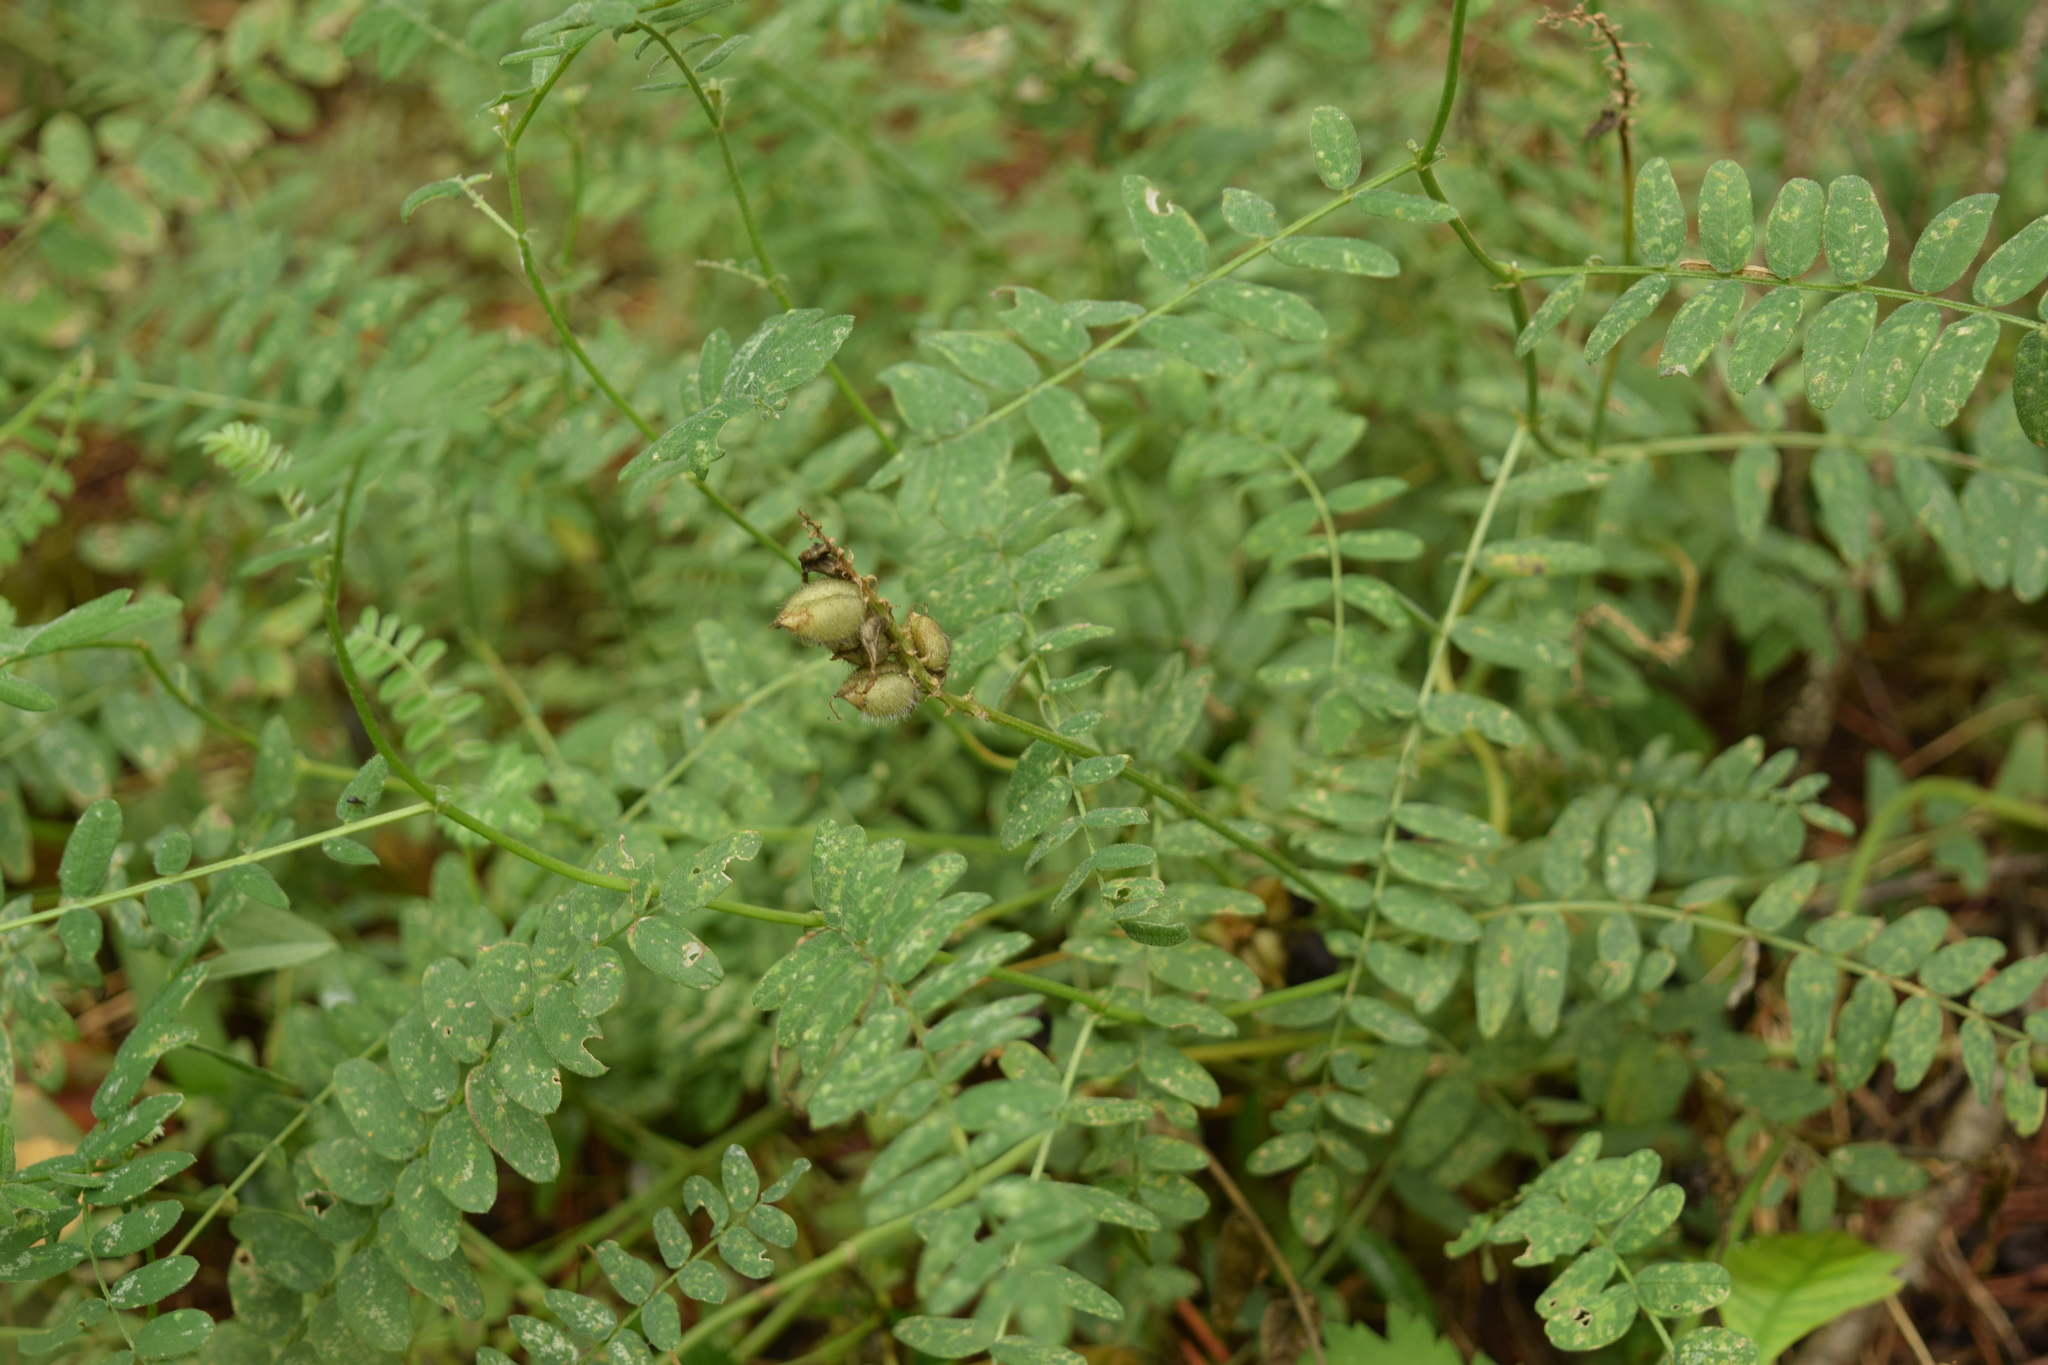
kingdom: Plantae
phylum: Tracheophyta
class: Magnoliopsida
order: Fabales
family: Fabaceae
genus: Astragalus
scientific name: Astragalus cicer
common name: Chick-pea milk-vetch
